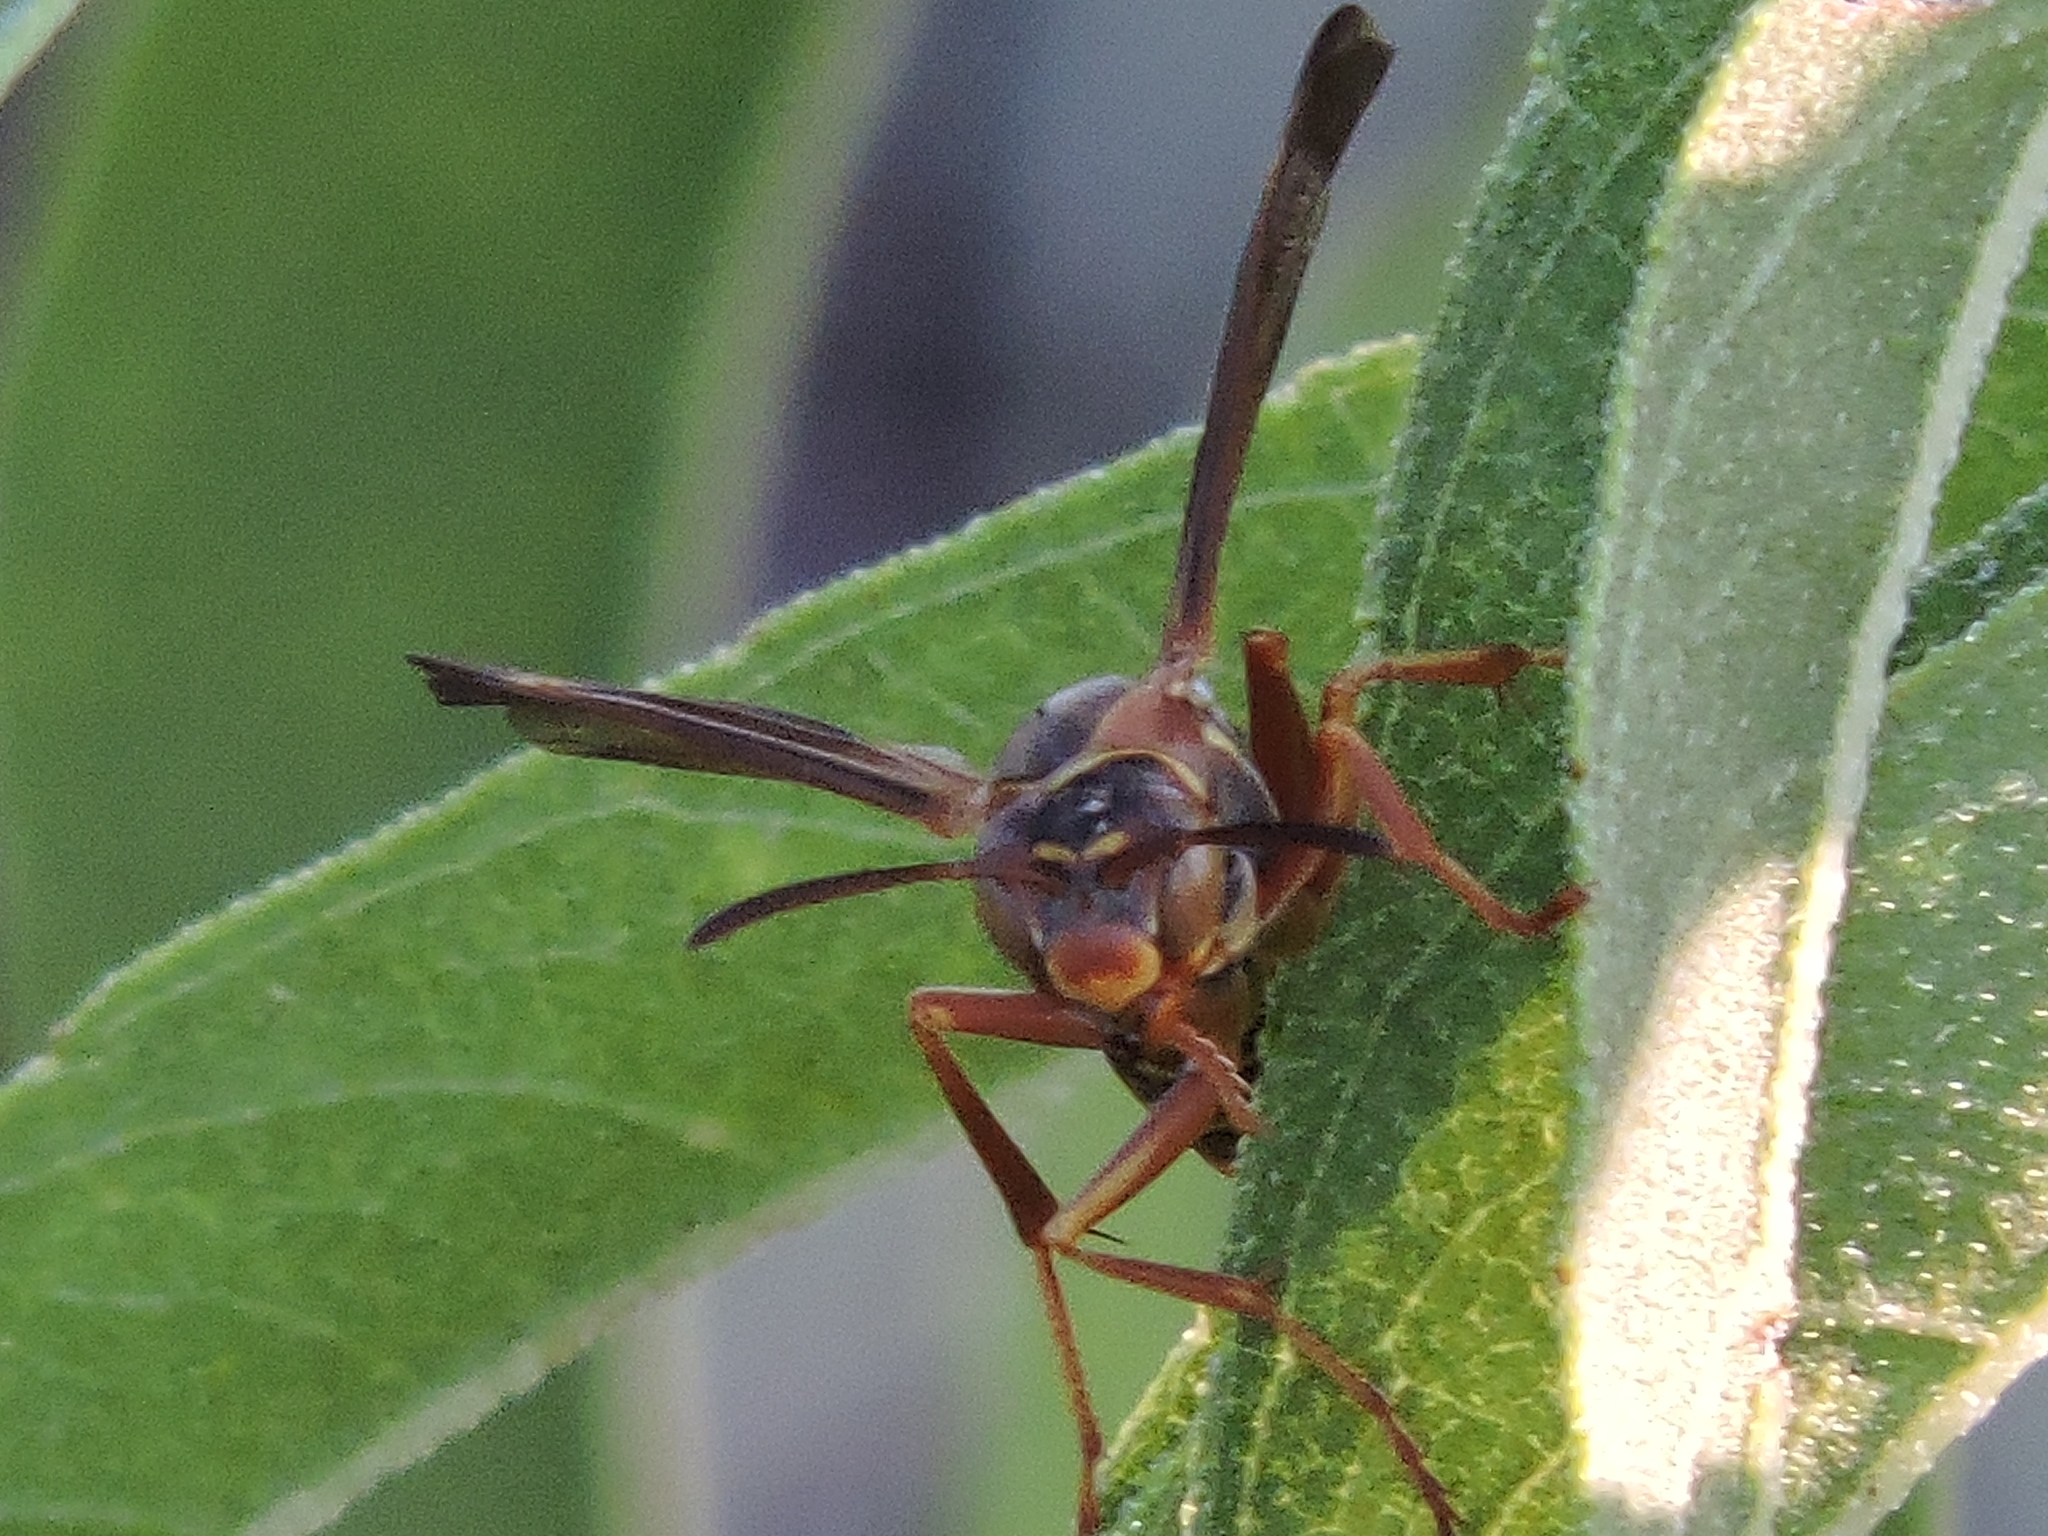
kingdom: Animalia
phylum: Arthropoda
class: Insecta
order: Hymenoptera
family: Eumenidae
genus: Polistes
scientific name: Polistes fuscatus
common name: Dark paper wasp
